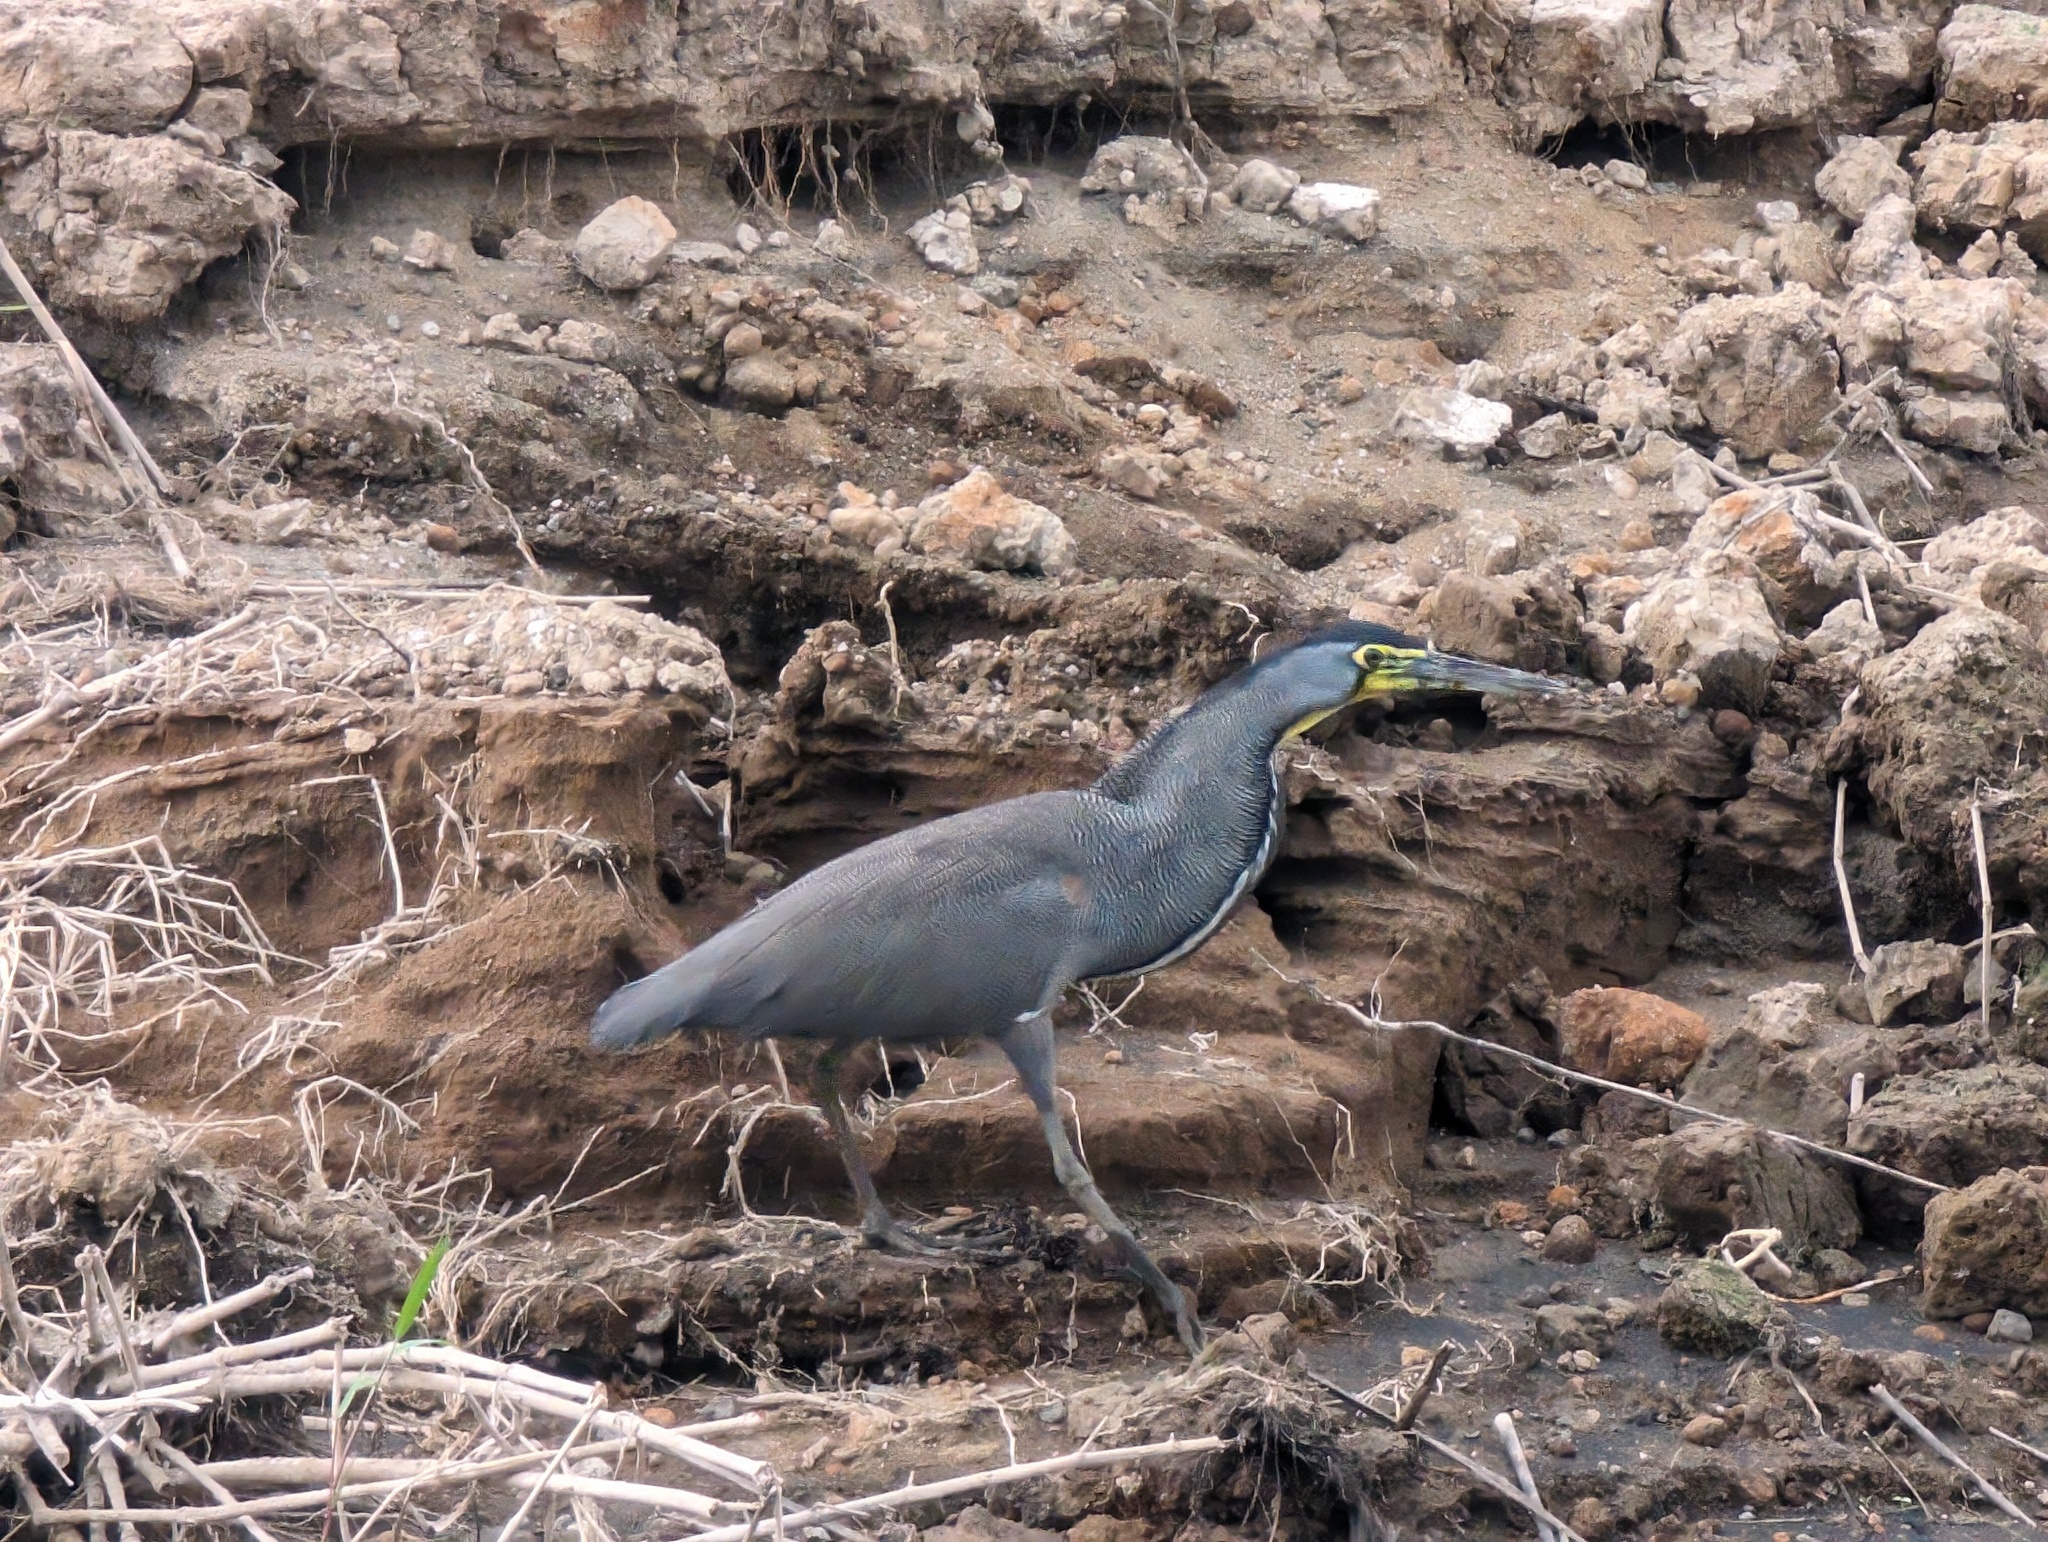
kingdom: Animalia
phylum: Chordata
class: Aves
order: Pelecaniformes
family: Ardeidae
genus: Tigrisoma
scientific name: Tigrisoma mexicanum
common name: Bare-throated tiger-heron
